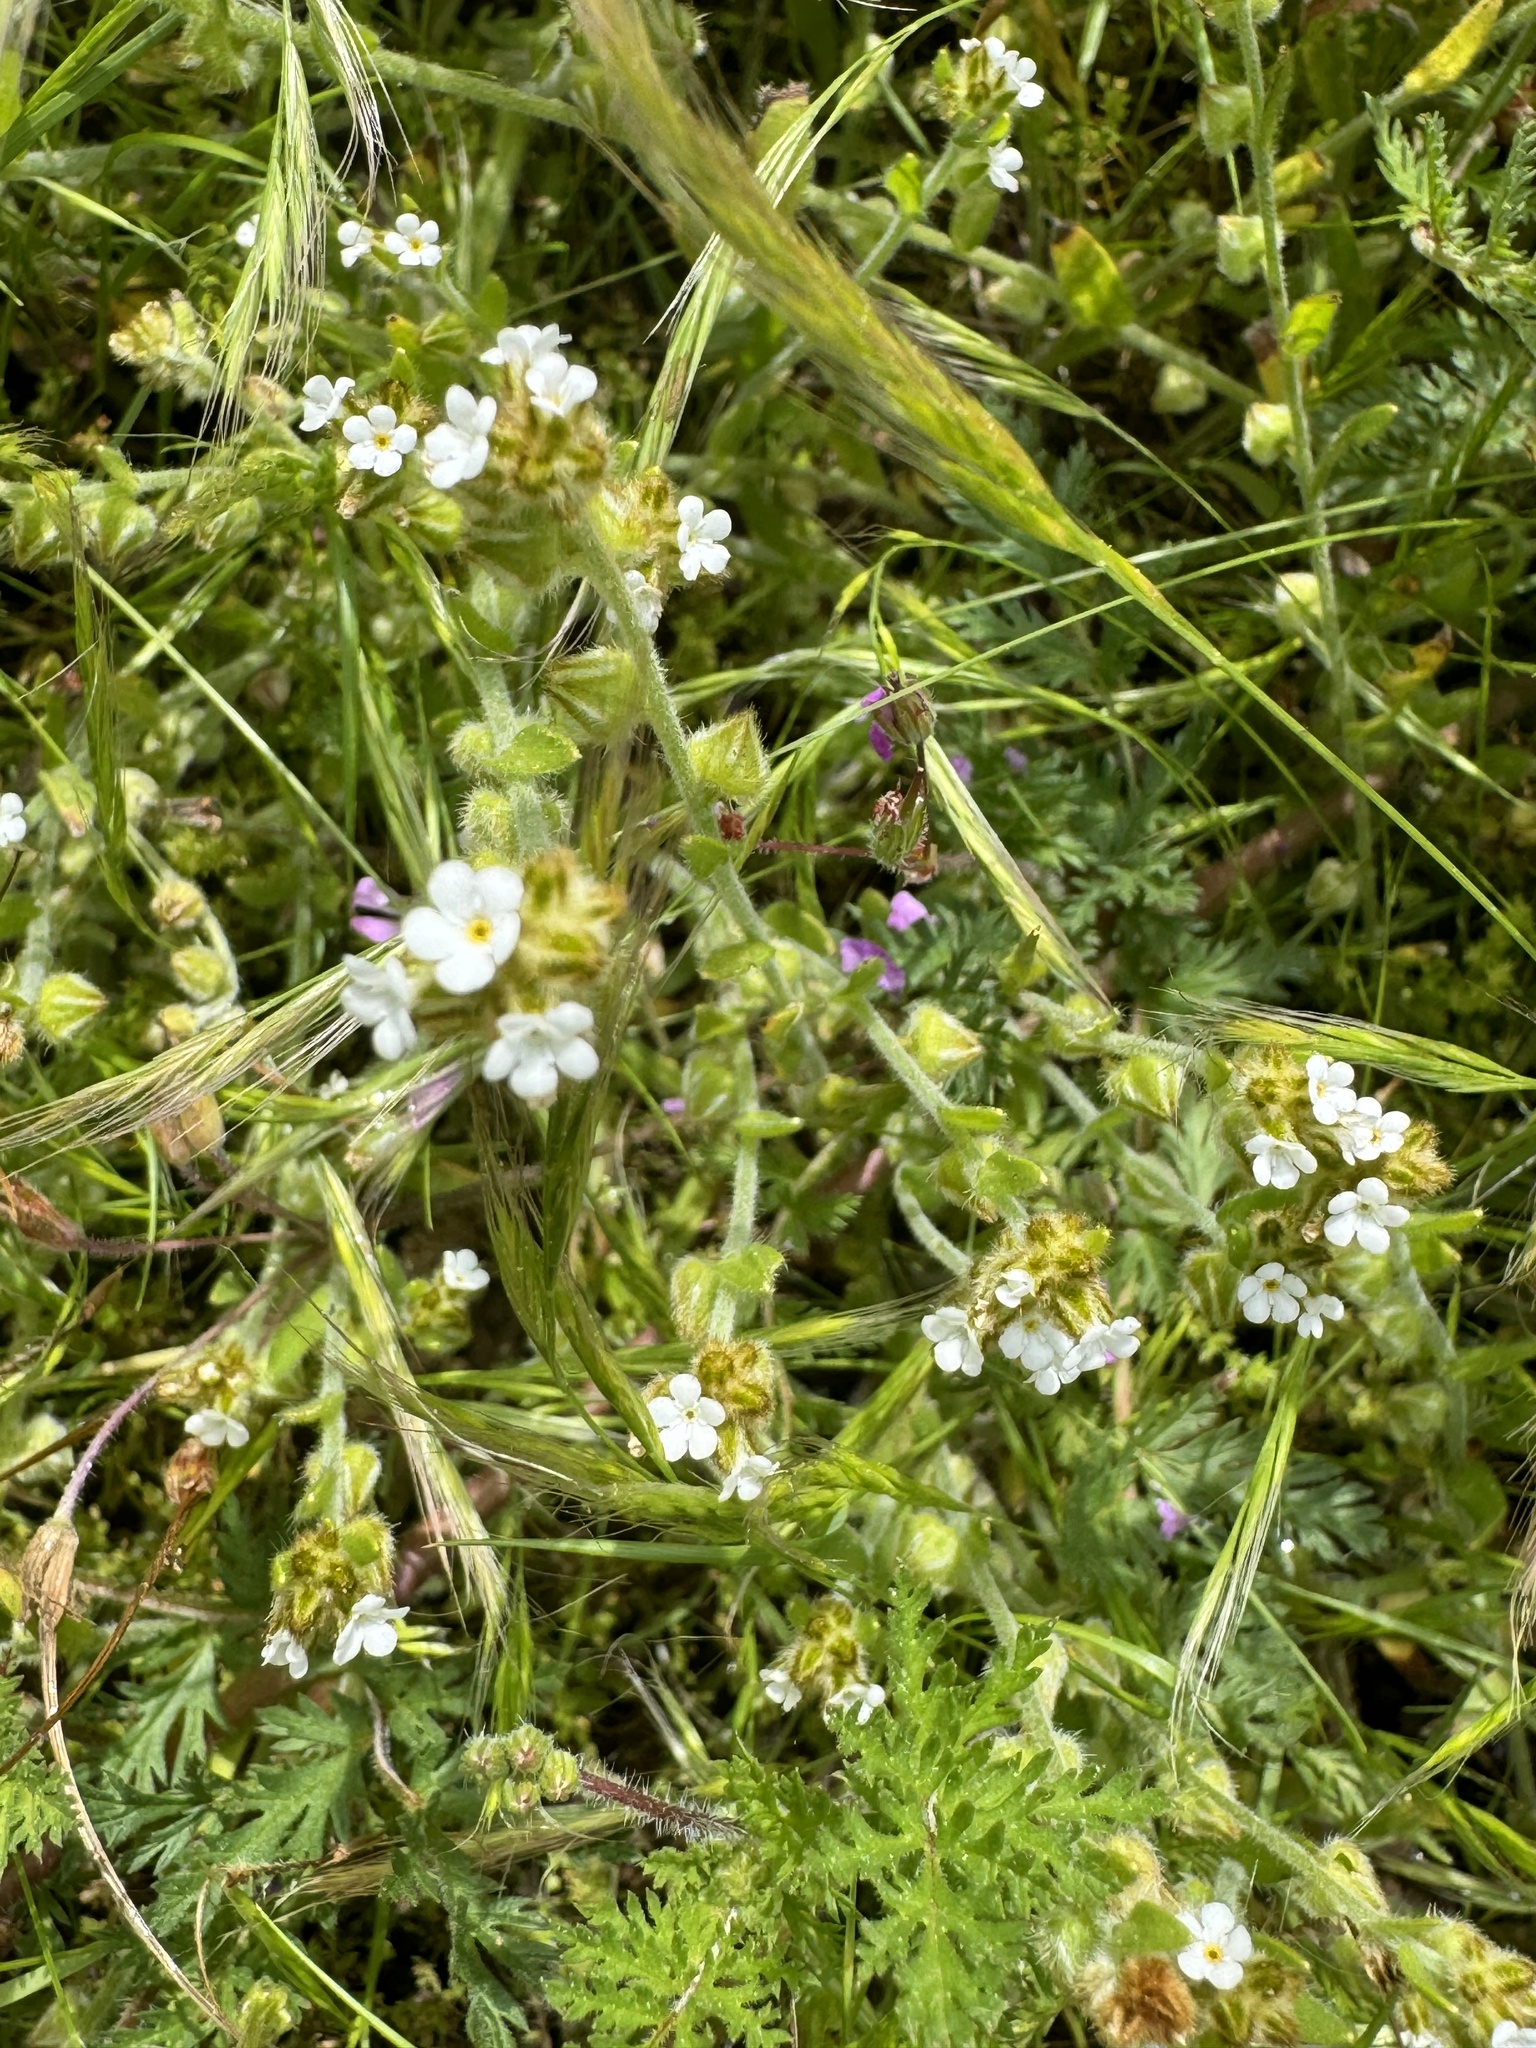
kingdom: Plantae
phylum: Tracheophyta
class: Magnoliopsida
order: Boraginales
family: Boraginaceae
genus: Plagiobothrys
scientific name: Plagiobothrys nothofulvus
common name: Popcorn-flower
